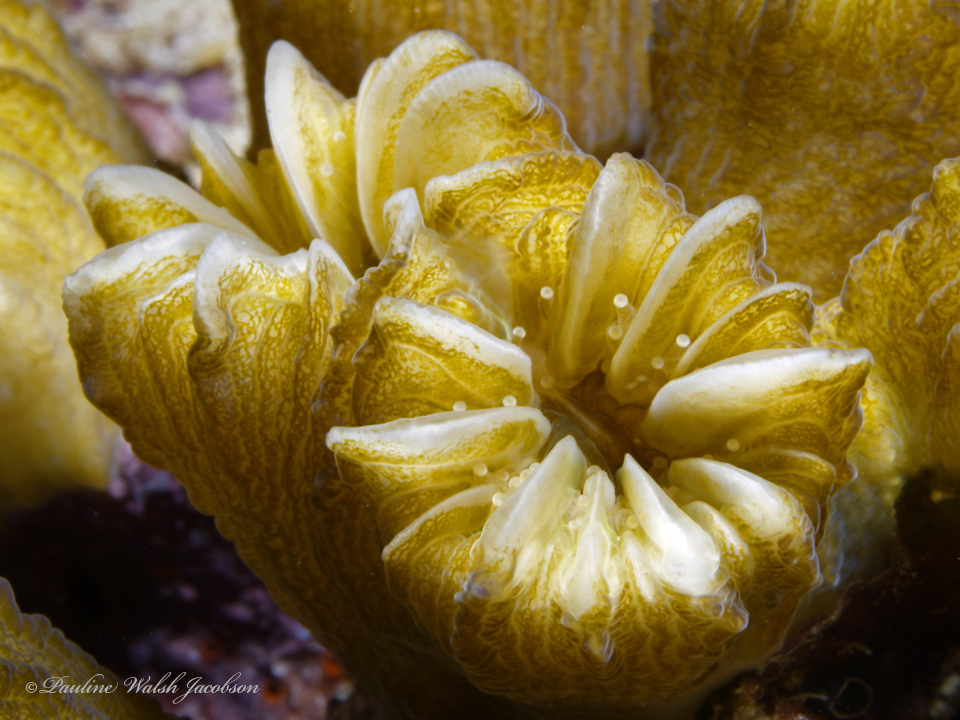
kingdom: Animalia
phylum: Cnidaria
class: Anthozoa
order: Scleractinia
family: Meandrinidae
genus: Eusmilia
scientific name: Eusmilia fastigiata
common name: Smooth flower coral
